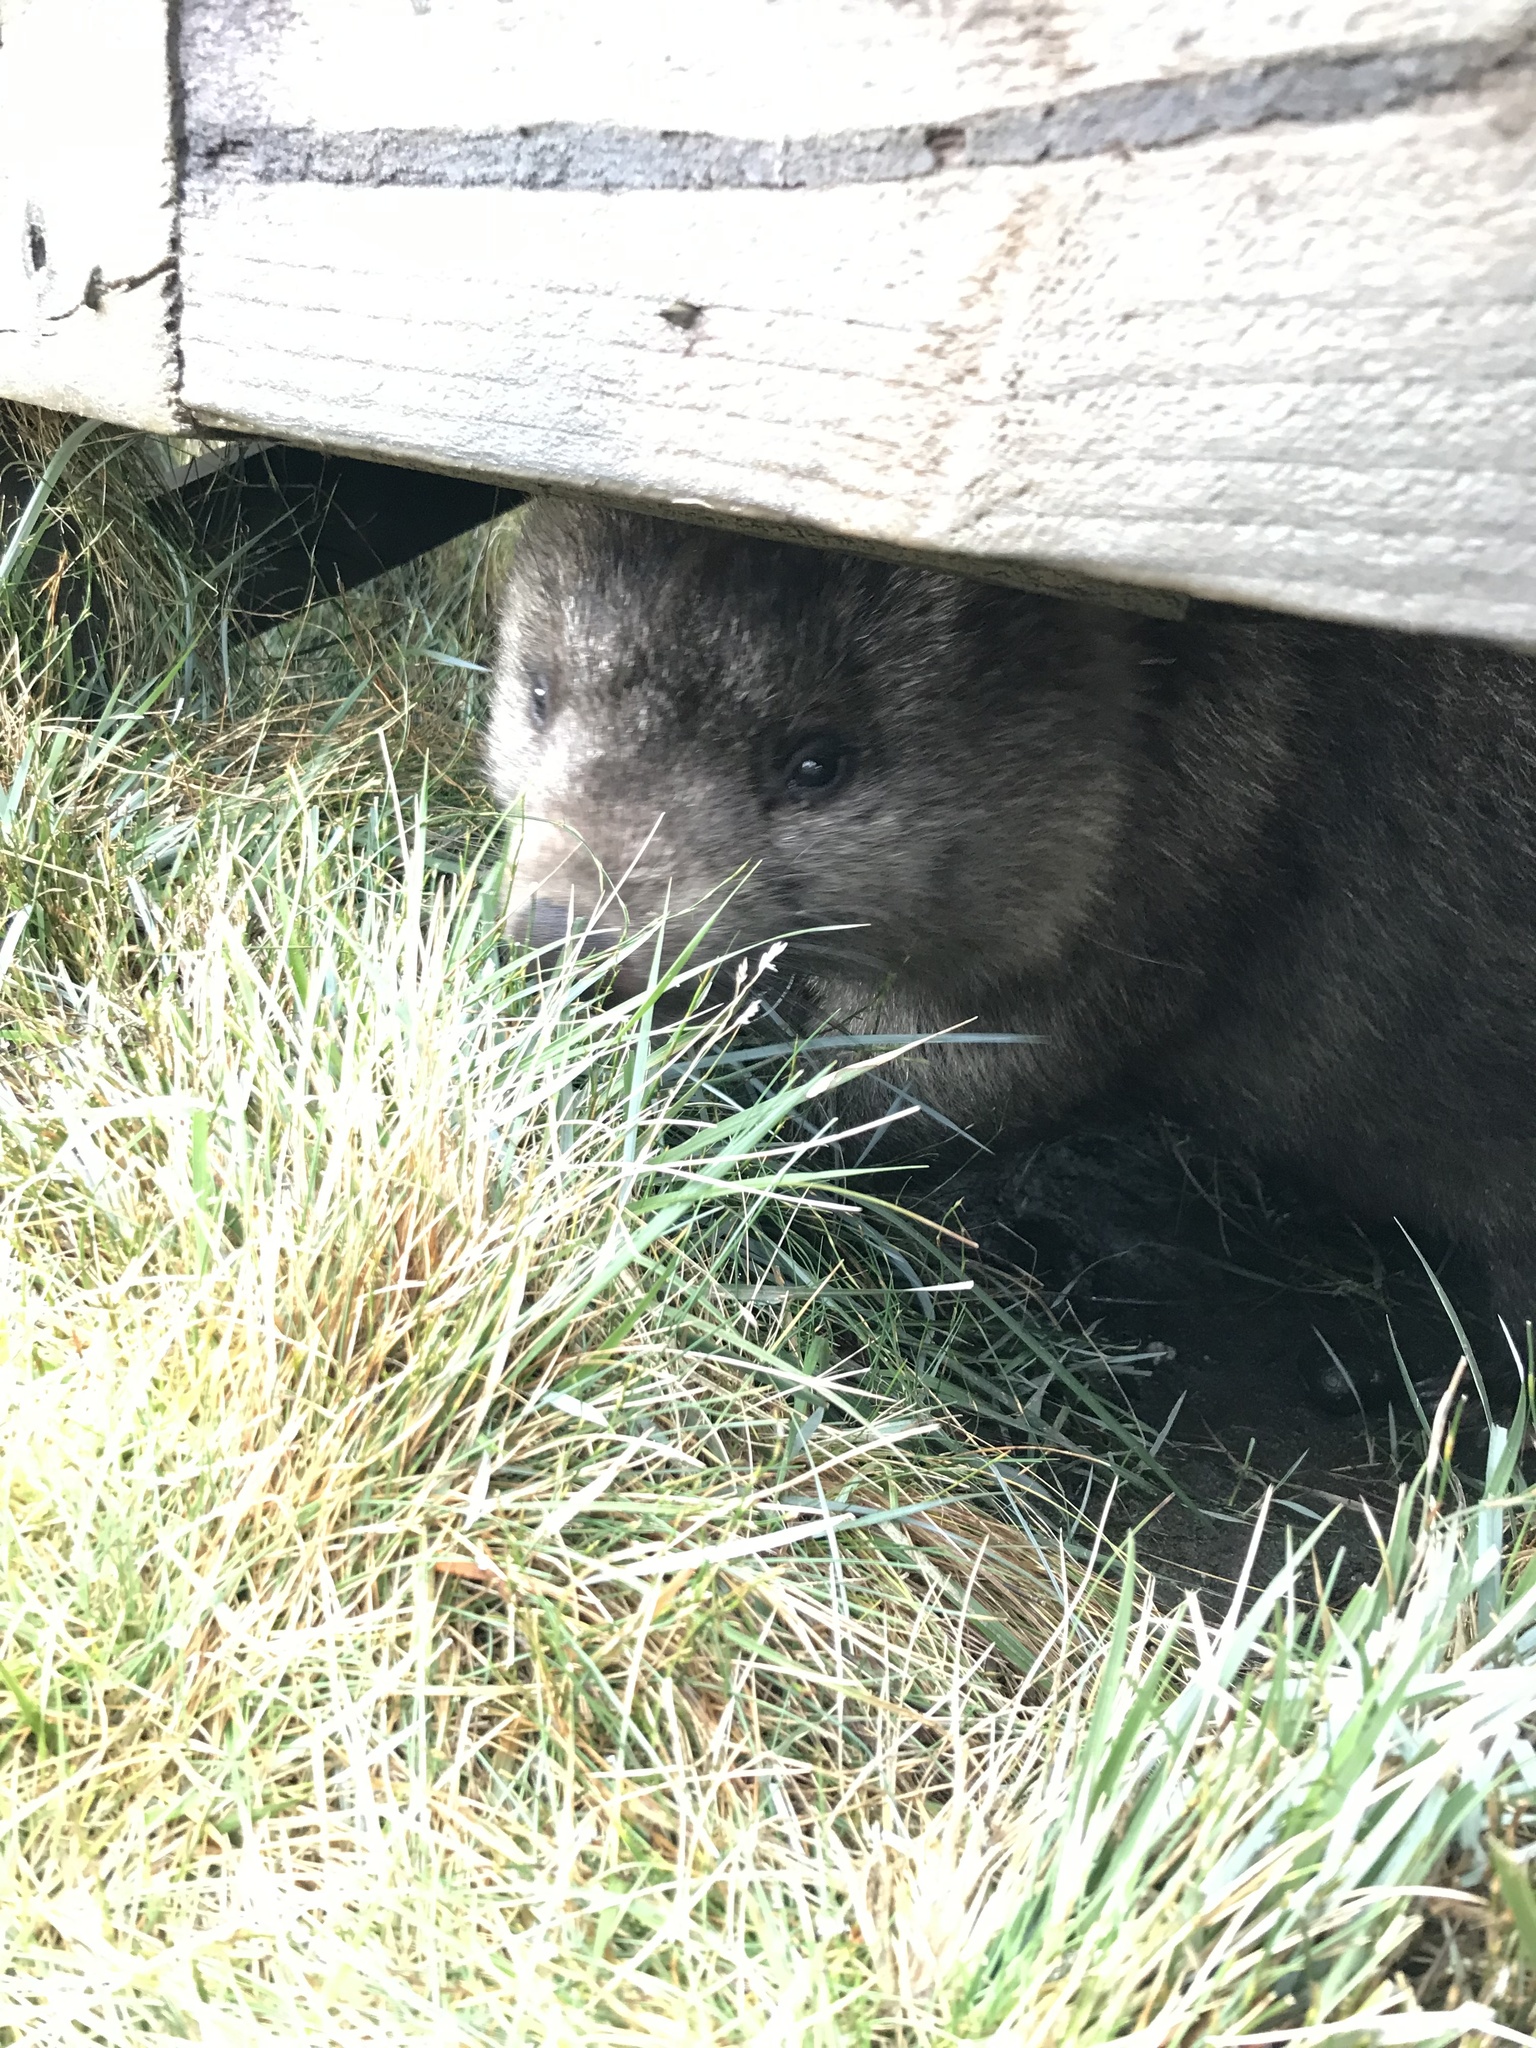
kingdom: Animalia
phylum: Chordata
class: Mammalia
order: Diprotodontia
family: Vombatidae
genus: Vombatus
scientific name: Vombatus ursinus
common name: Common wombat
